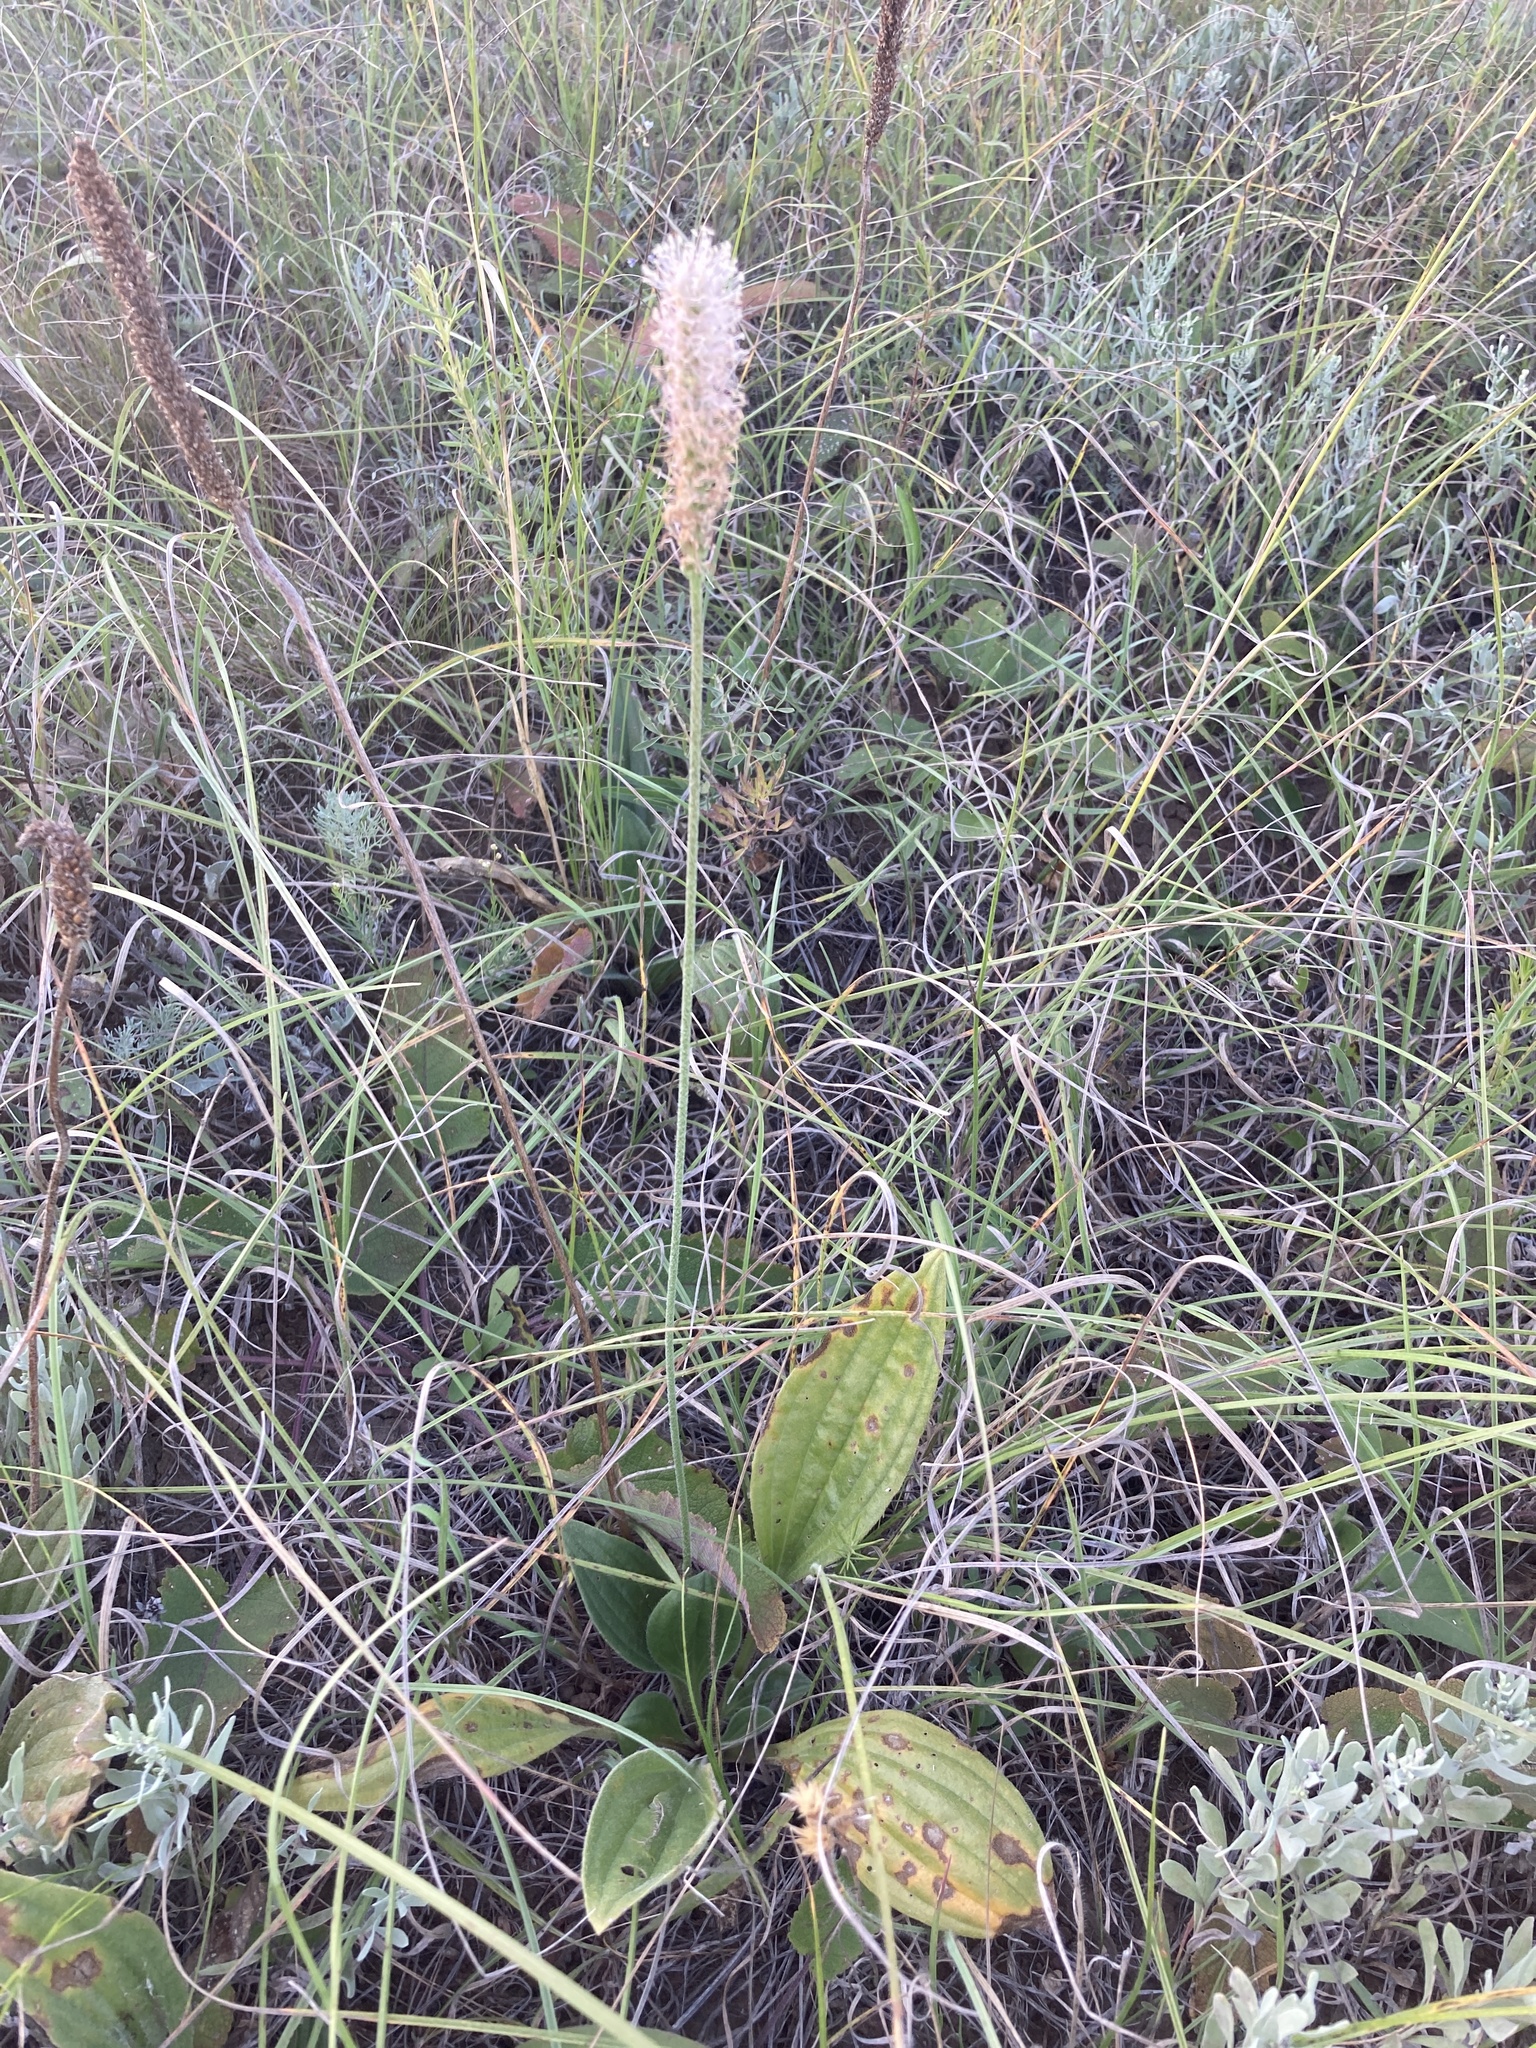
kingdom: Plantae
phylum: Tracheophyta
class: Magnoliopsida
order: Lamiales
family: Plantaginaceae
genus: Plantago
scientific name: Plantago urvillei
